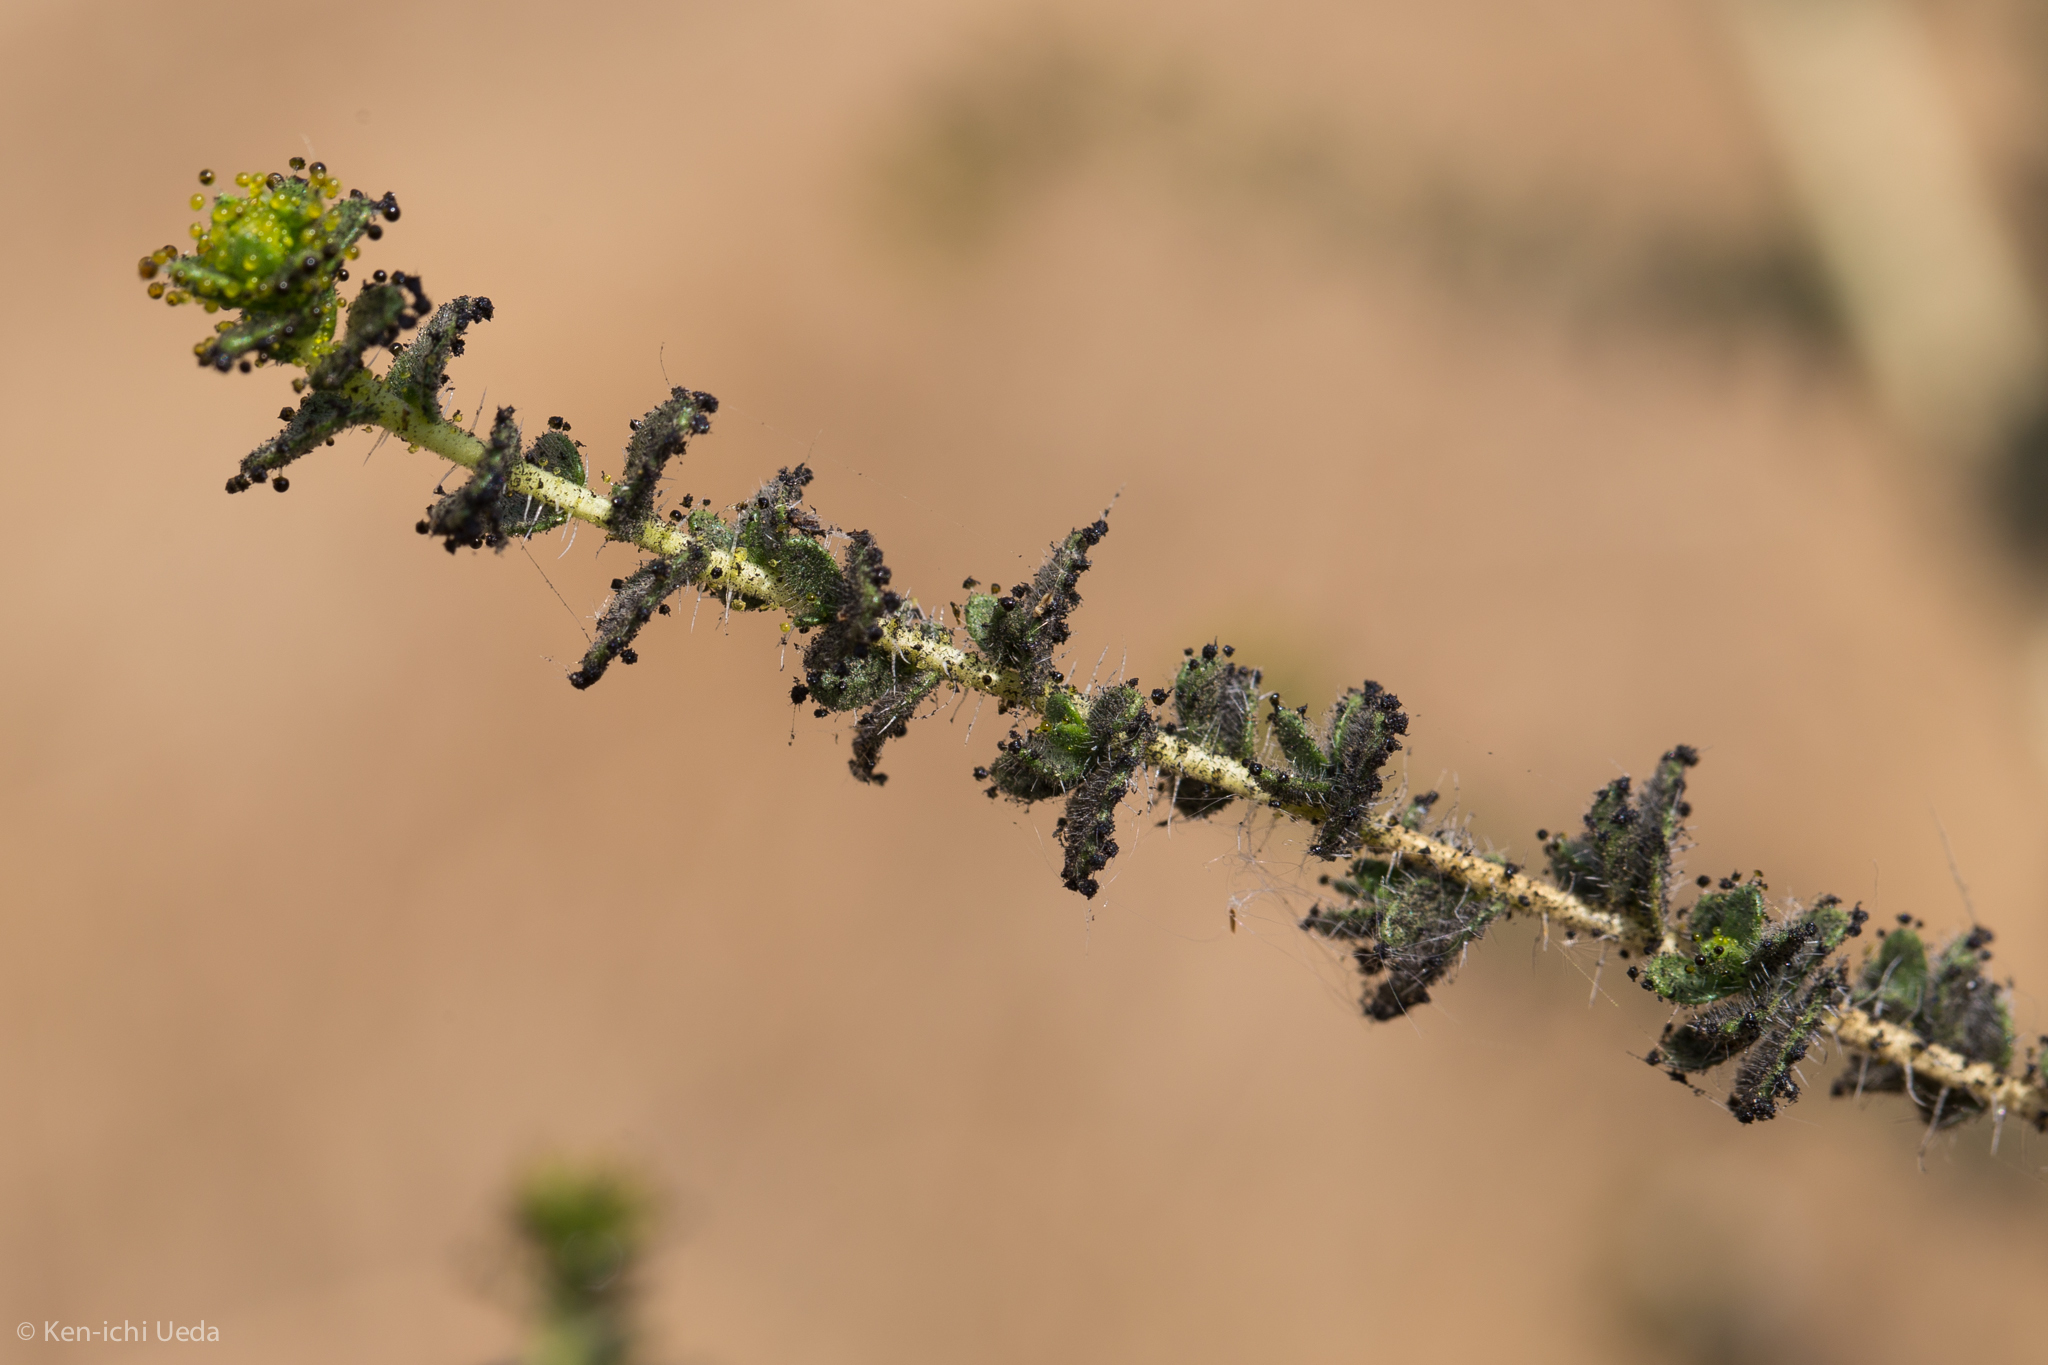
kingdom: Plantae
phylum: Tracheophyta
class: Magnoliopsida
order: Asterales
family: Asteraceae
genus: Blepharizonia
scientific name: Blepharizonia laxa
